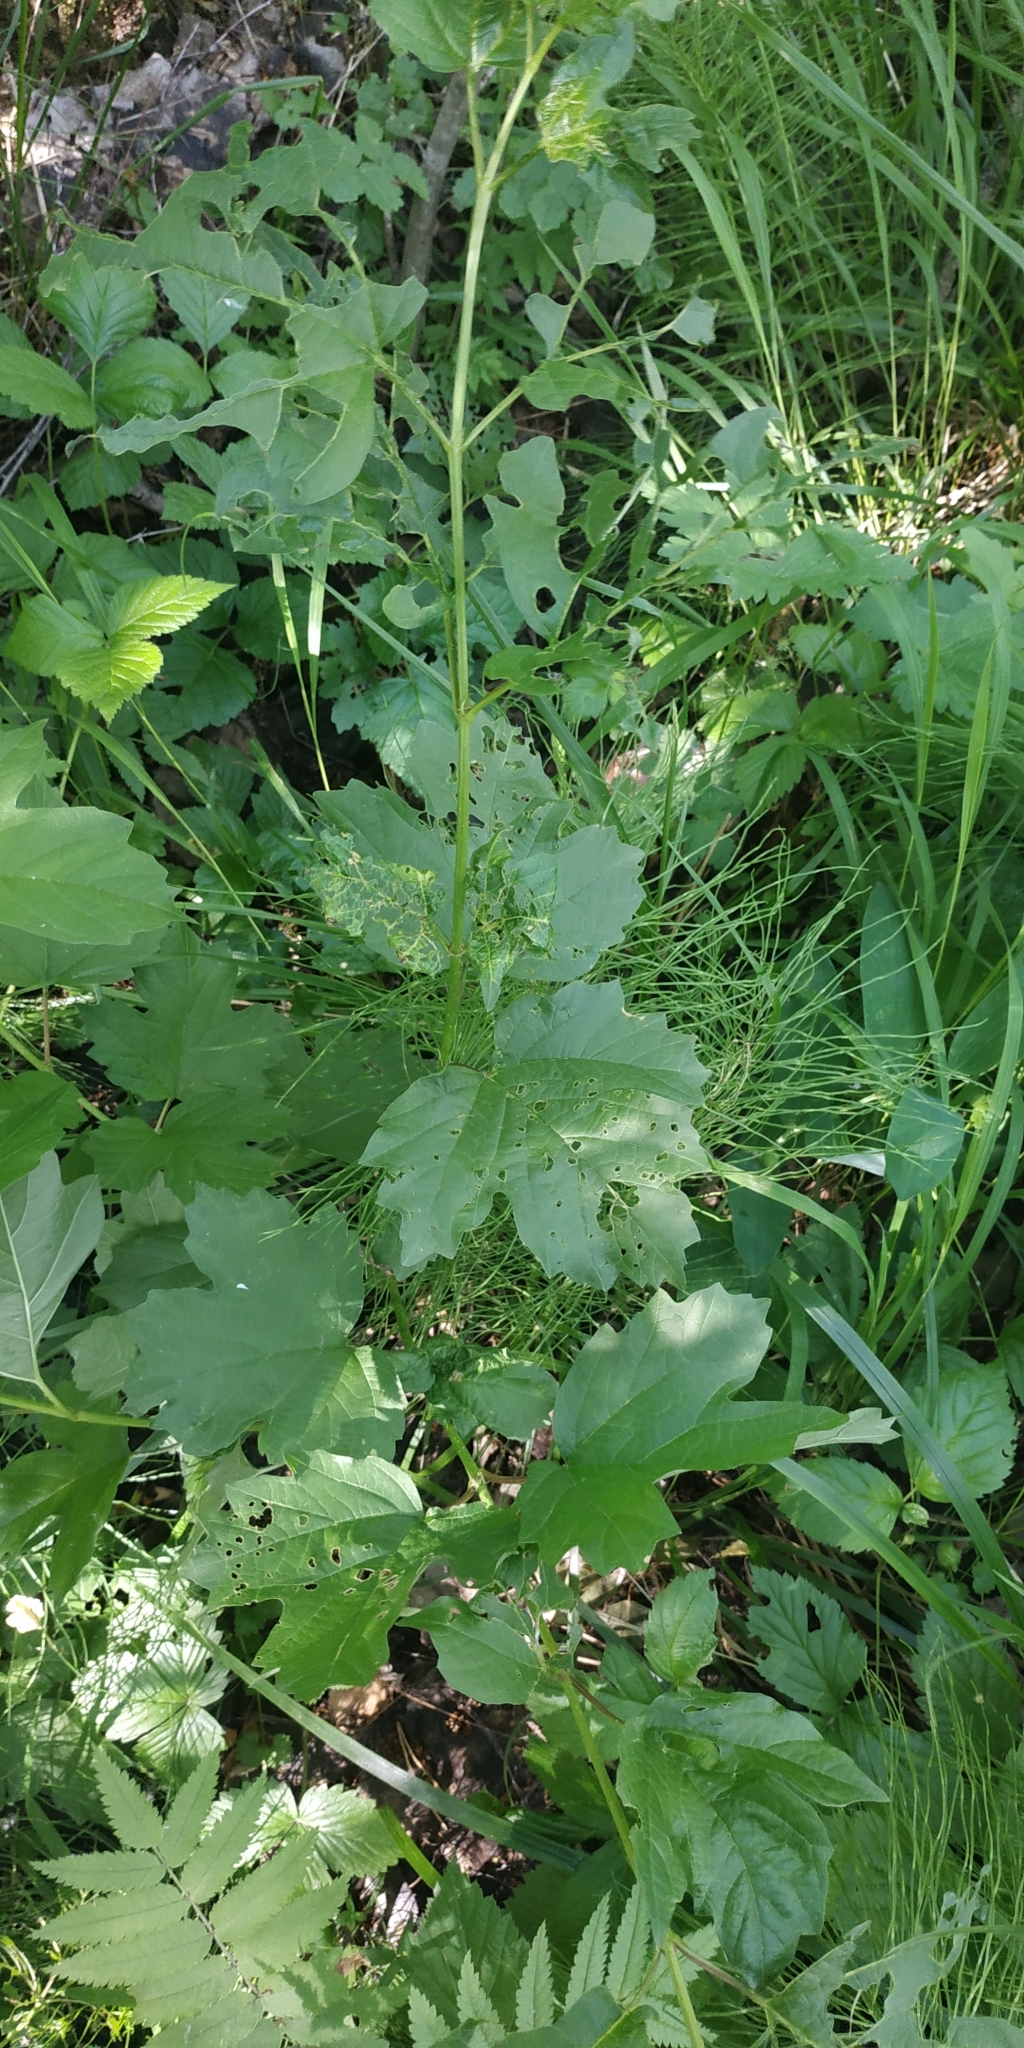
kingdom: Plantae
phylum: Tracheophyta
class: Magnoliopsida
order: Dipsacales
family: Viburnaceae
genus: Viburnum
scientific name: Viburnum opulus
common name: Guelder-rose
